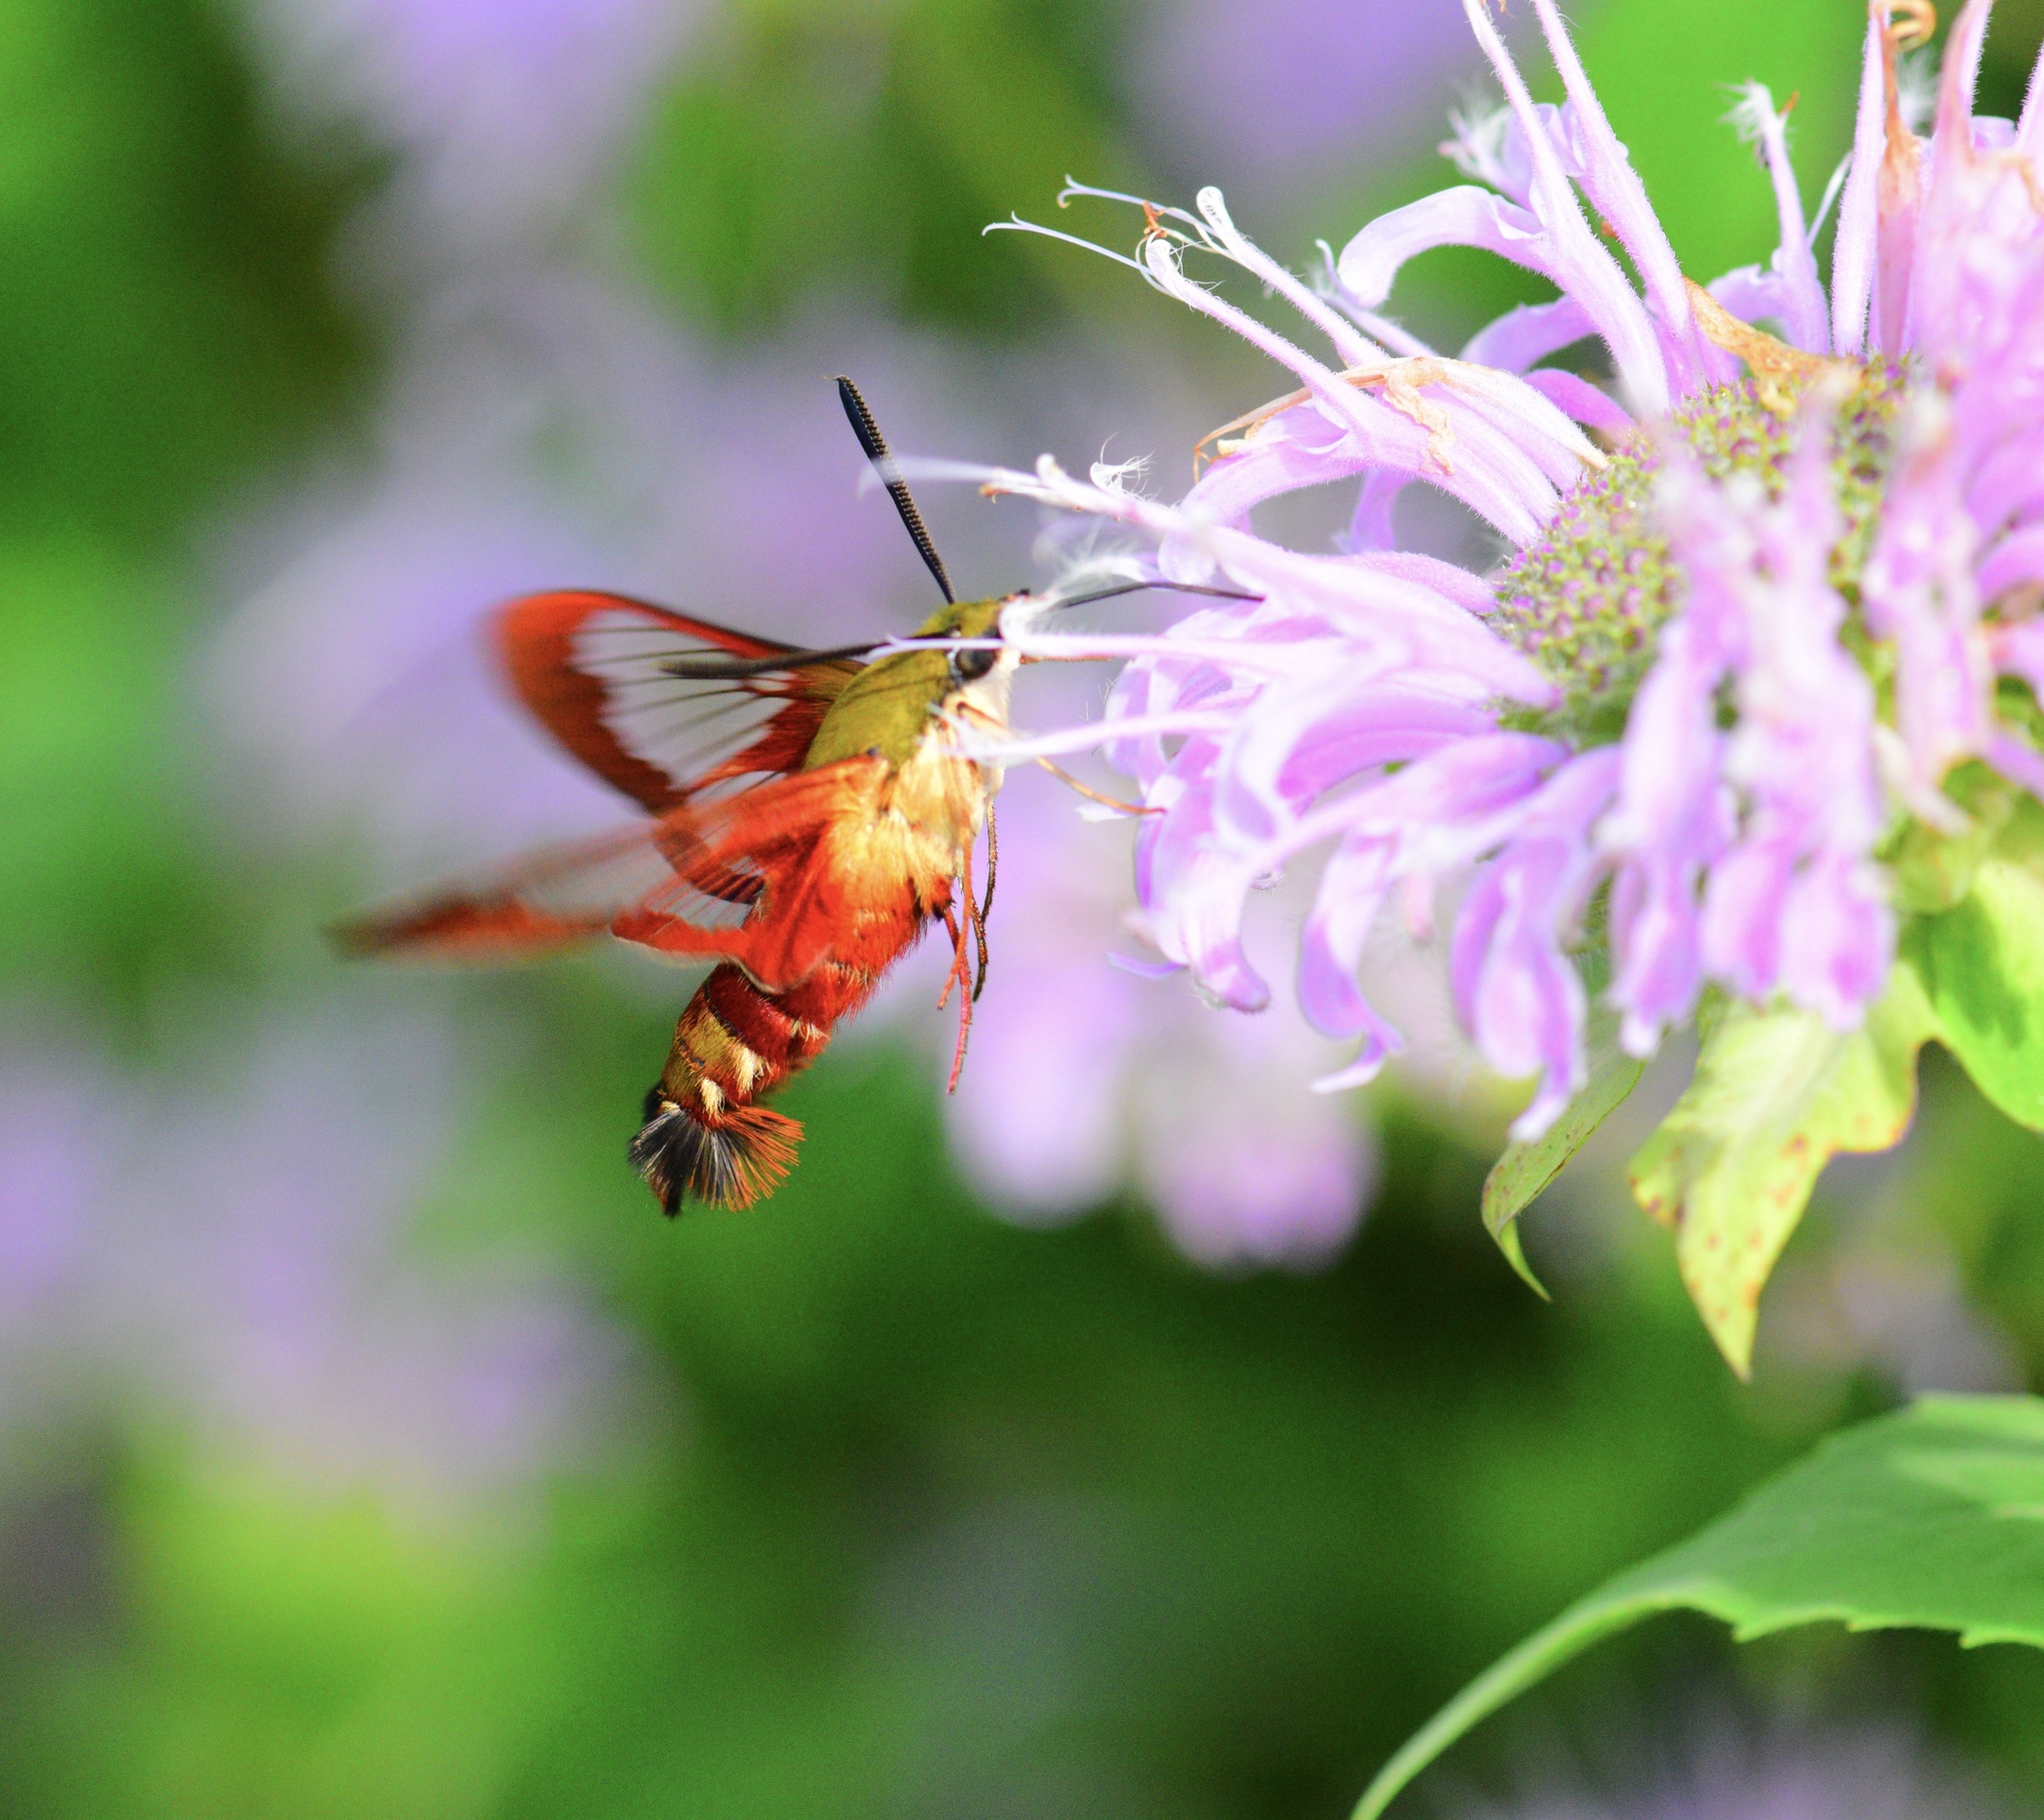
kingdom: Animalia
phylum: Arthropoda
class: Insecta
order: Lepidoptera
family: Sphingidae
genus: Hemaris
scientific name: Hemaris thysbe
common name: Common clear-wing
